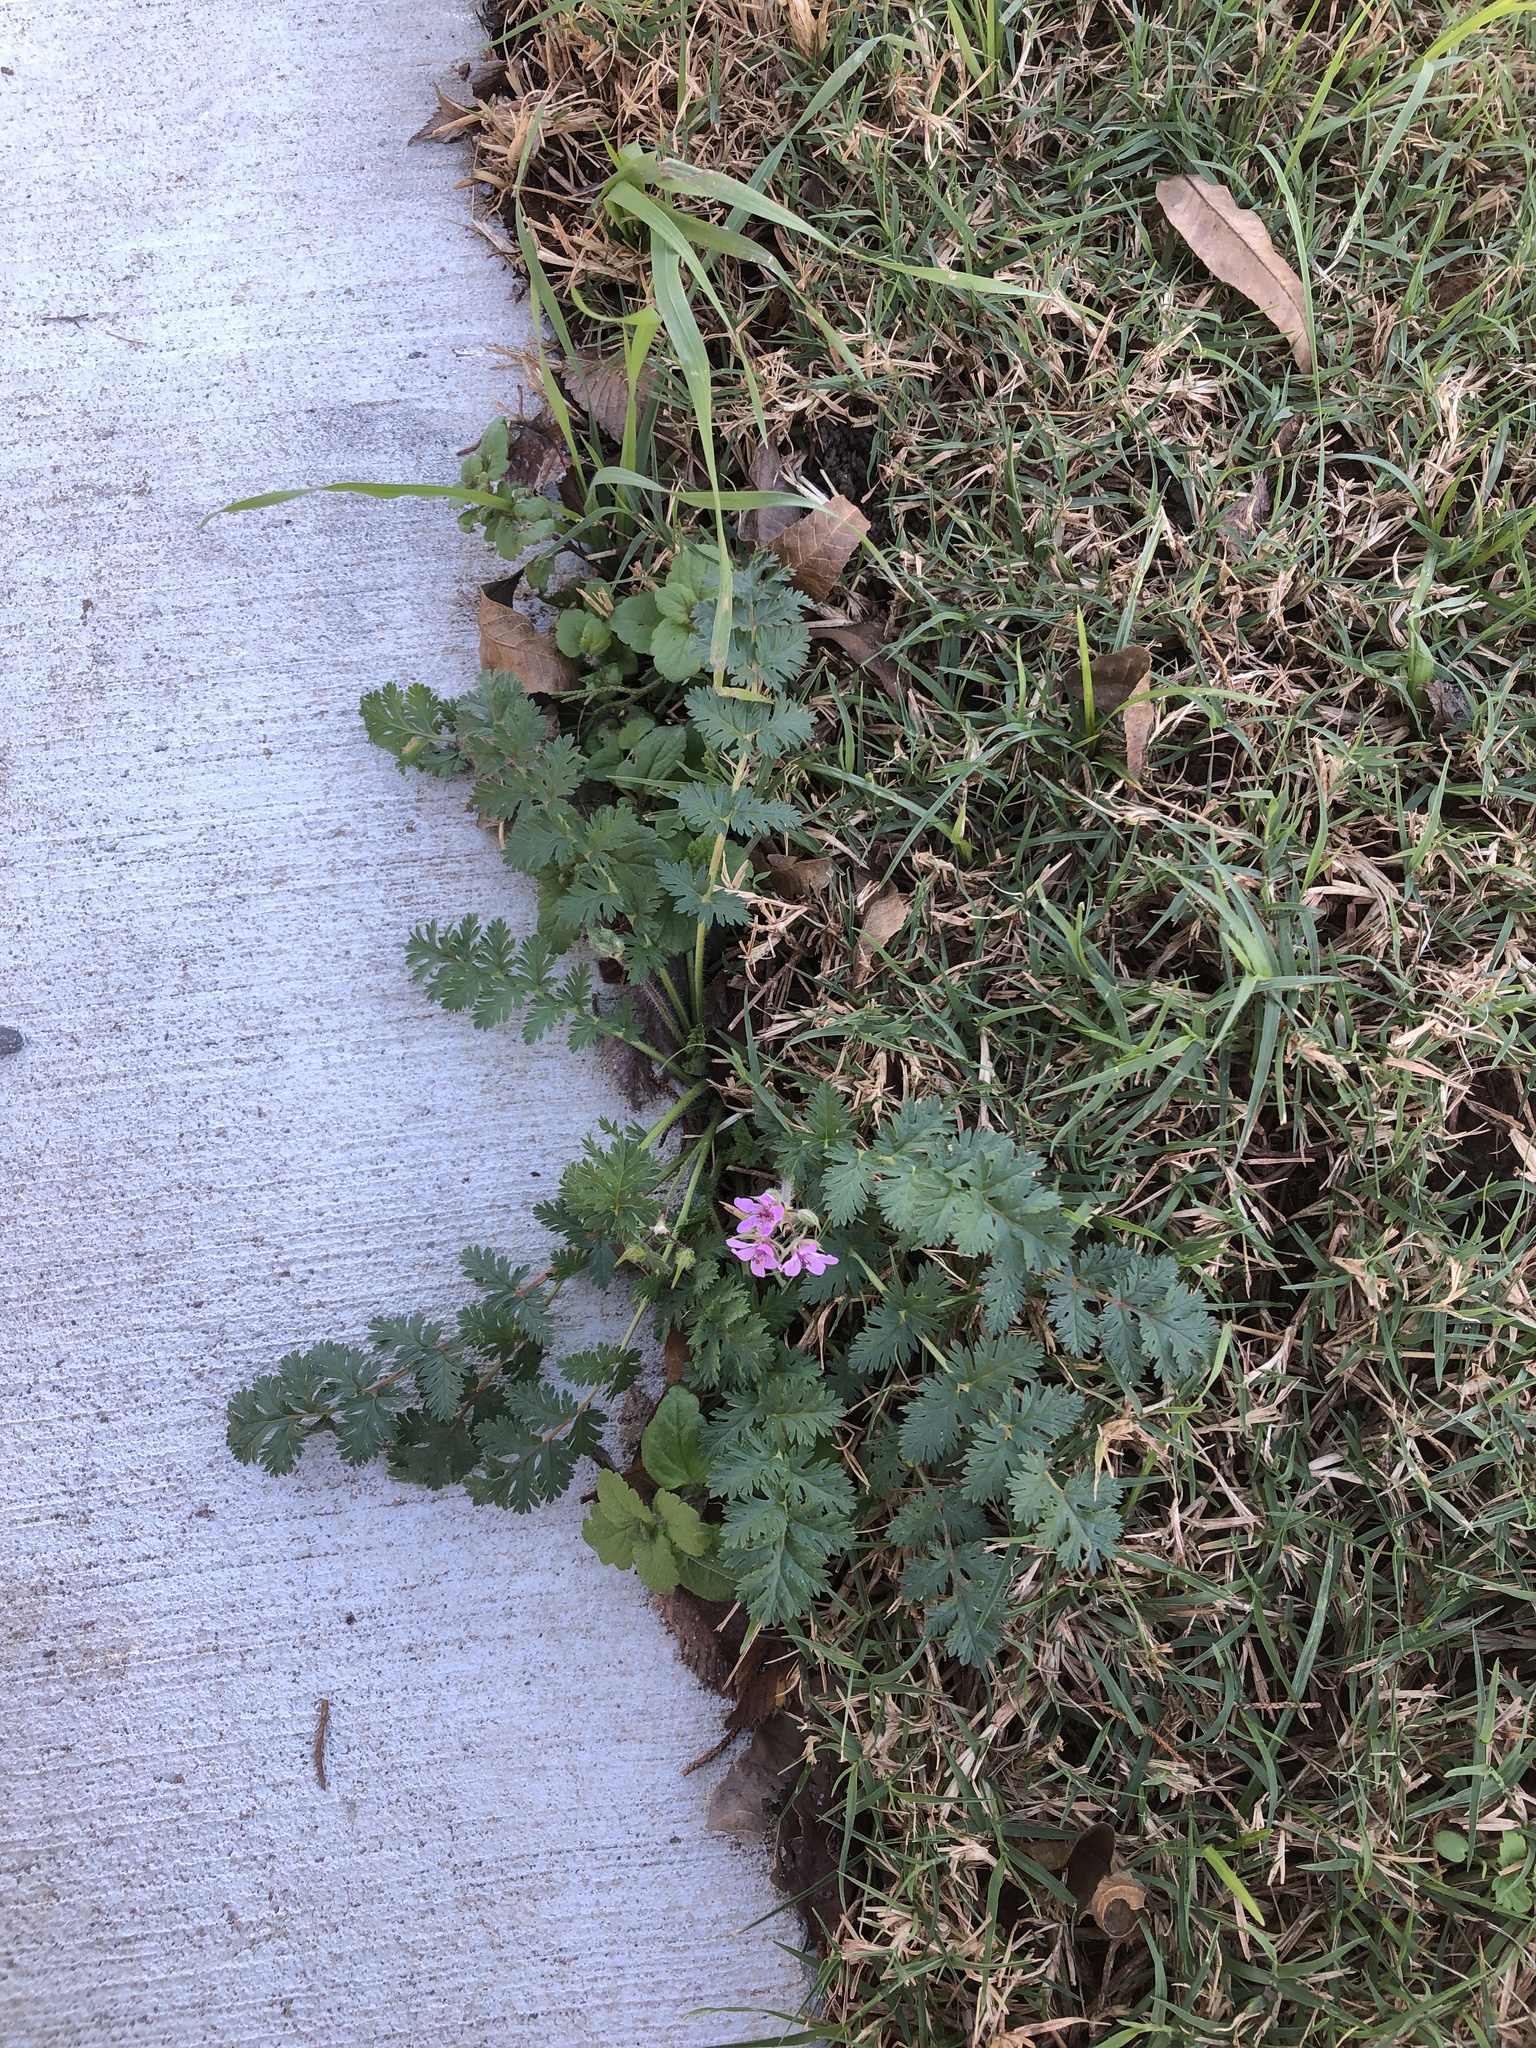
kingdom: Plantae
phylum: Tracheophyta
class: Magnoliopsida
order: Geraniales
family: Geraniaceae
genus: Erodium
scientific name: Erodium cicutarium
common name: Common stork's-bill
